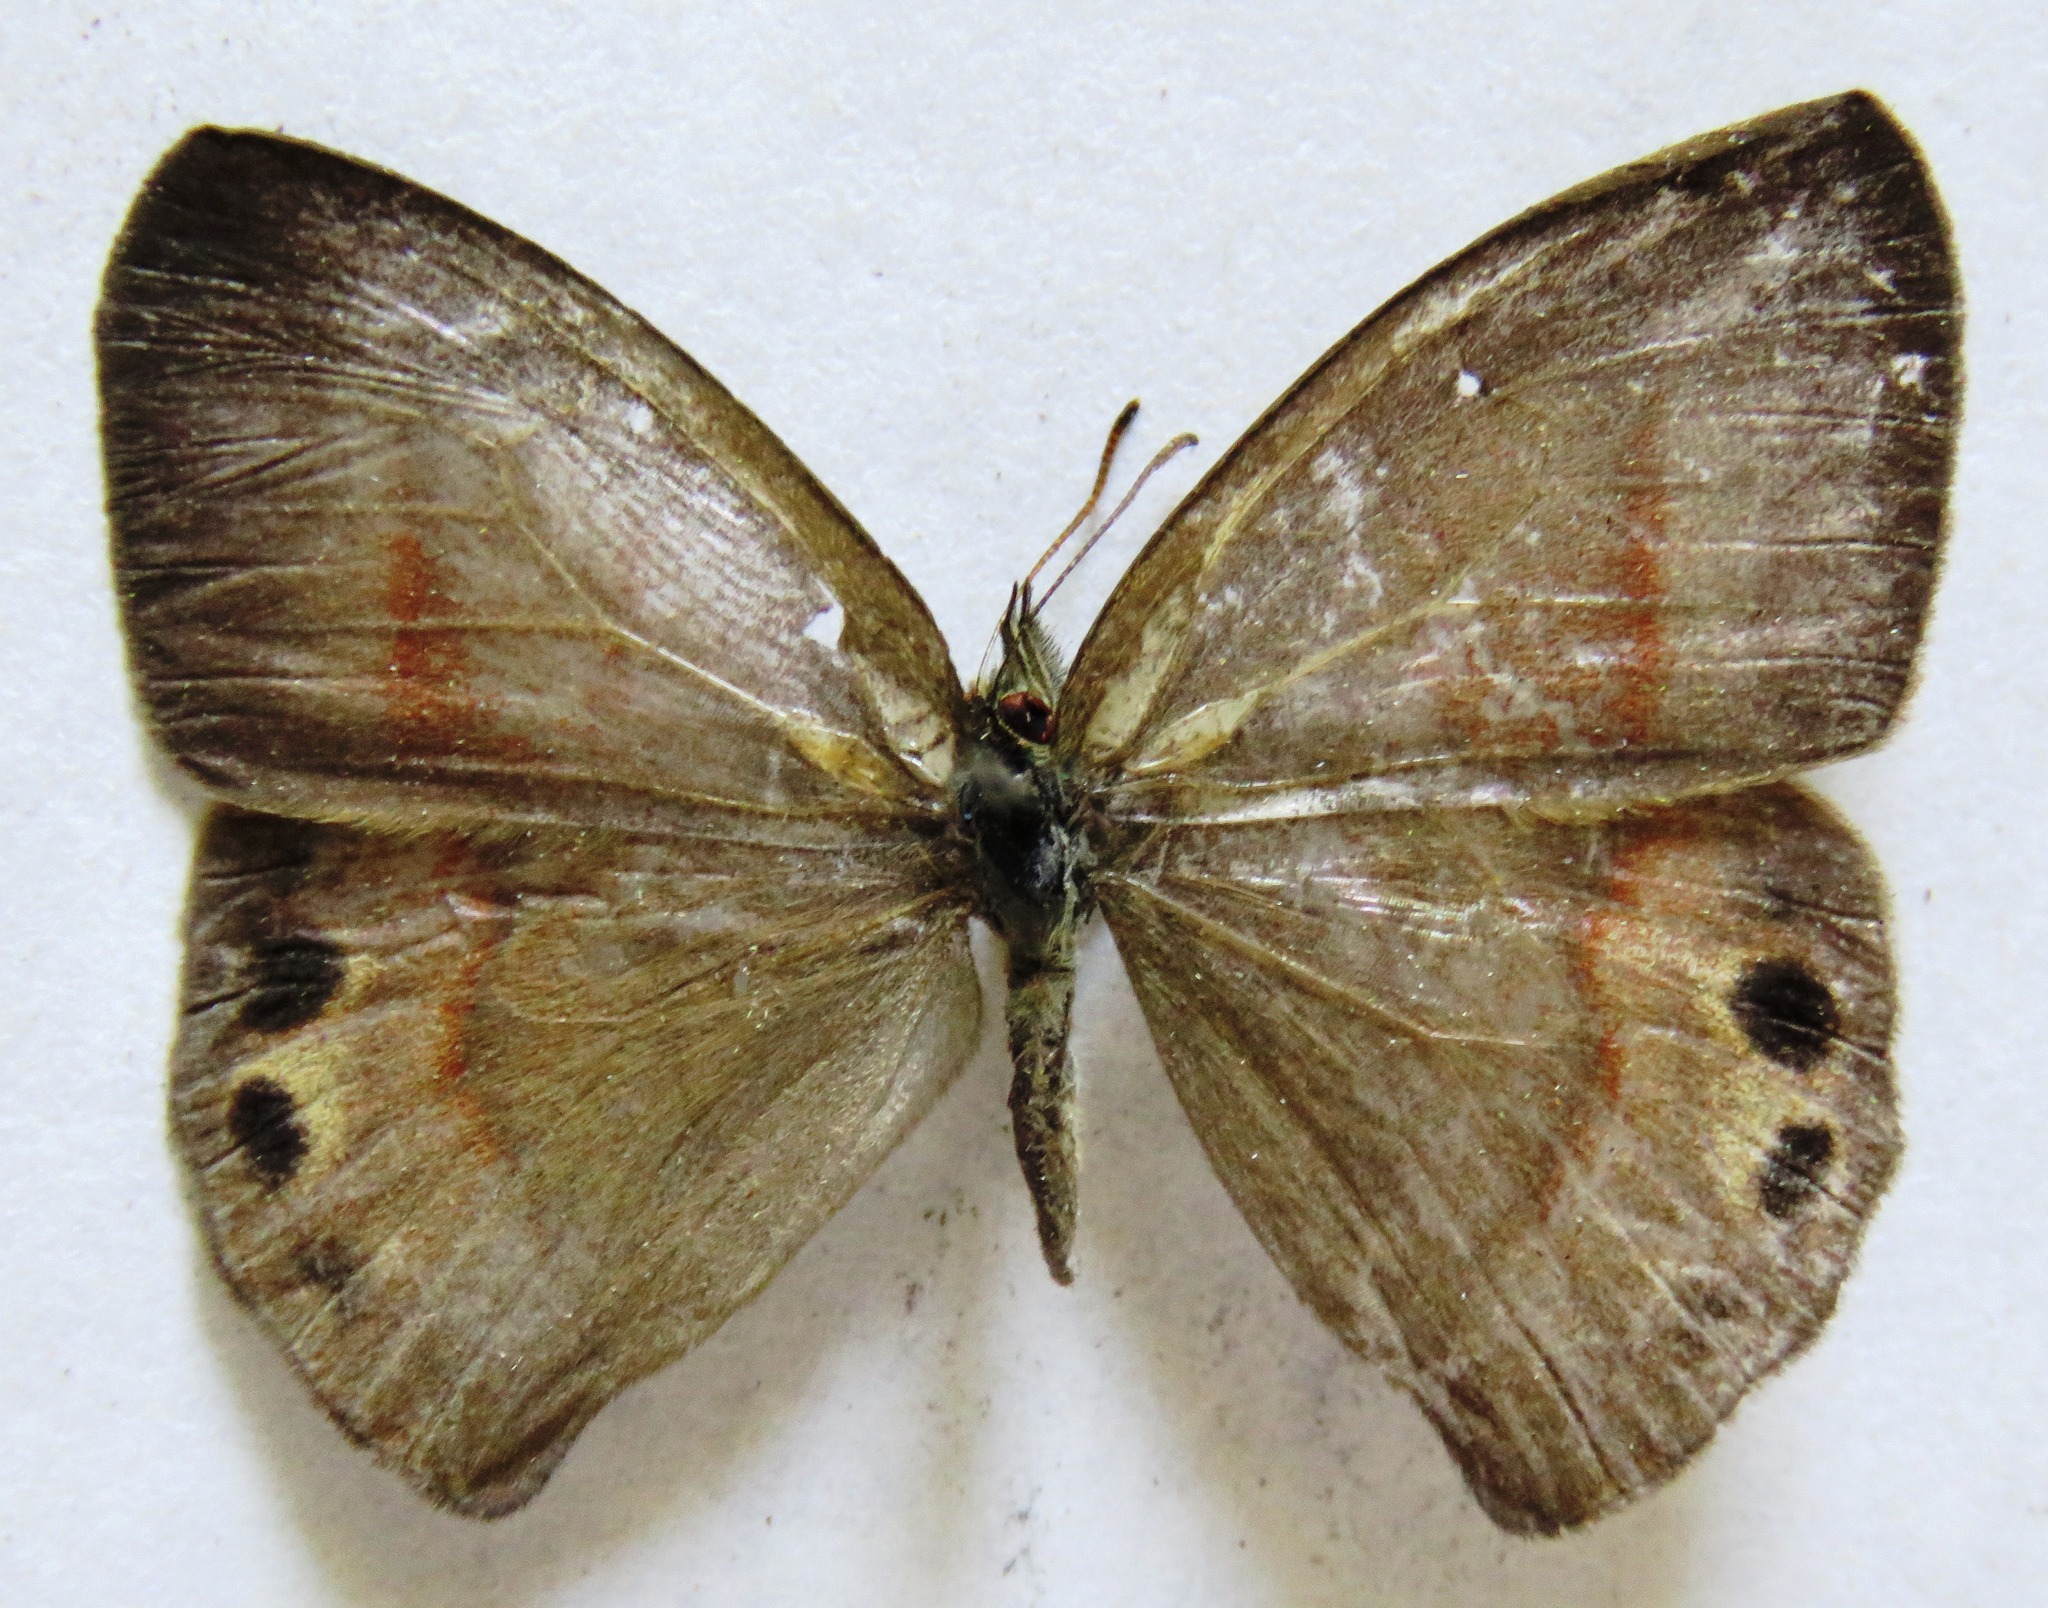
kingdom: Animalia
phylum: Arthropoda
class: Insecta
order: Lepidoptera
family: Nymphalidae
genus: Euptychia
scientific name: Euptychia
